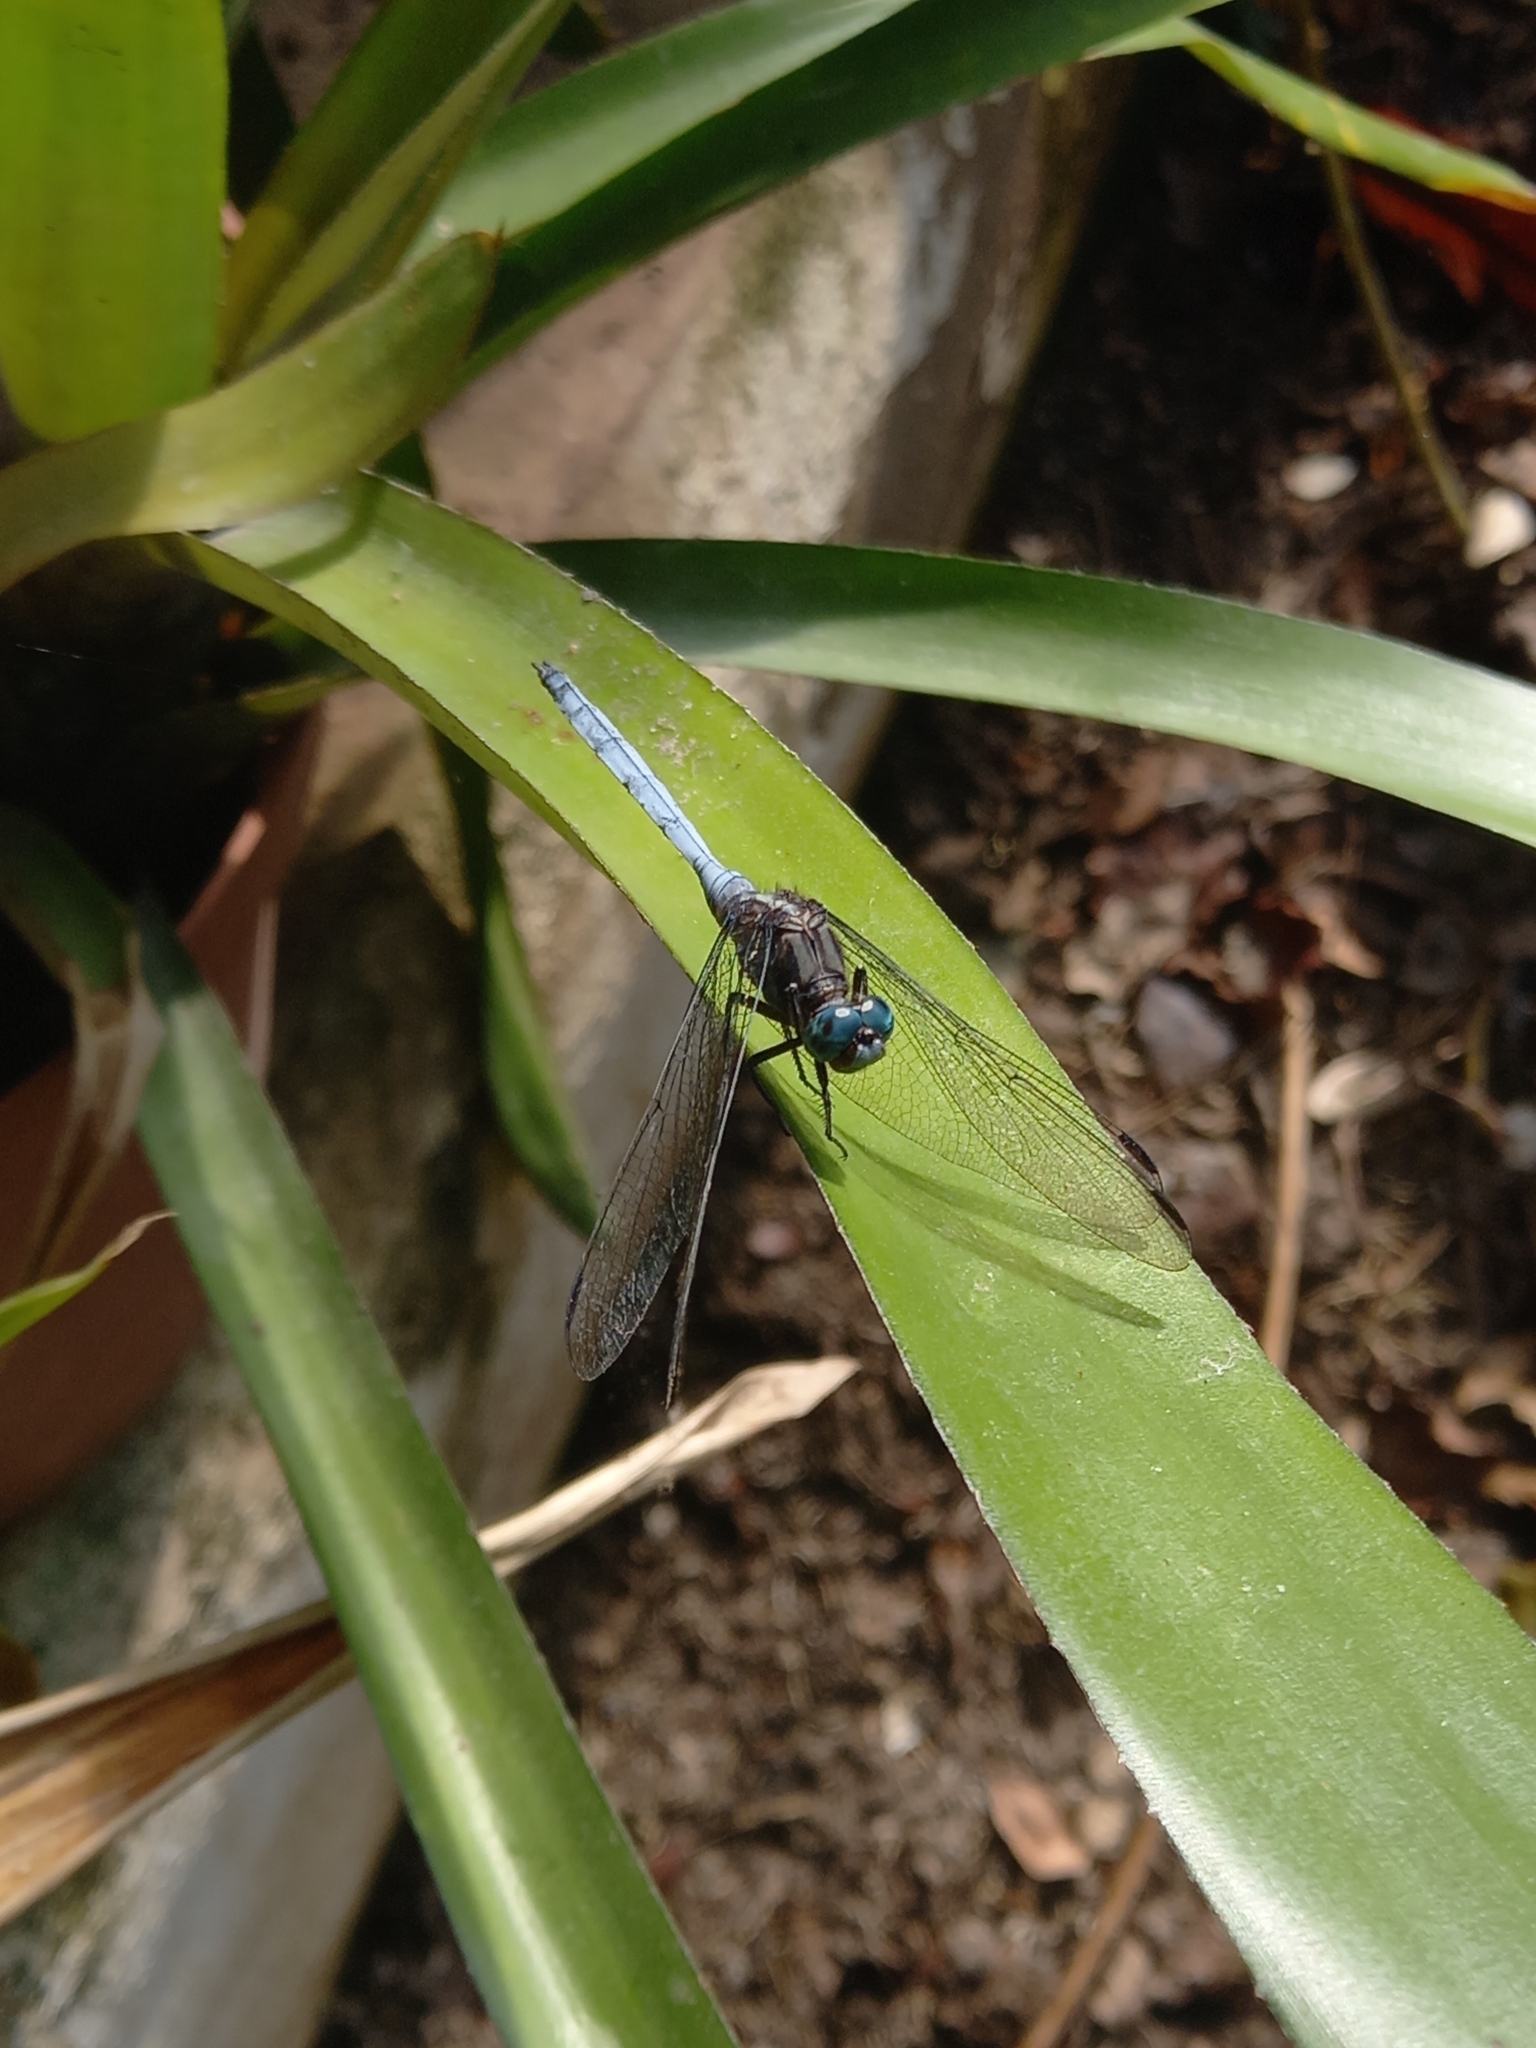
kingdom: Animalia
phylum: Arthropoda
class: Insecta
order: Odonata
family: Libellulidae
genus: Orthetrum
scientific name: Orthetrum julia
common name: Julia skimmer
